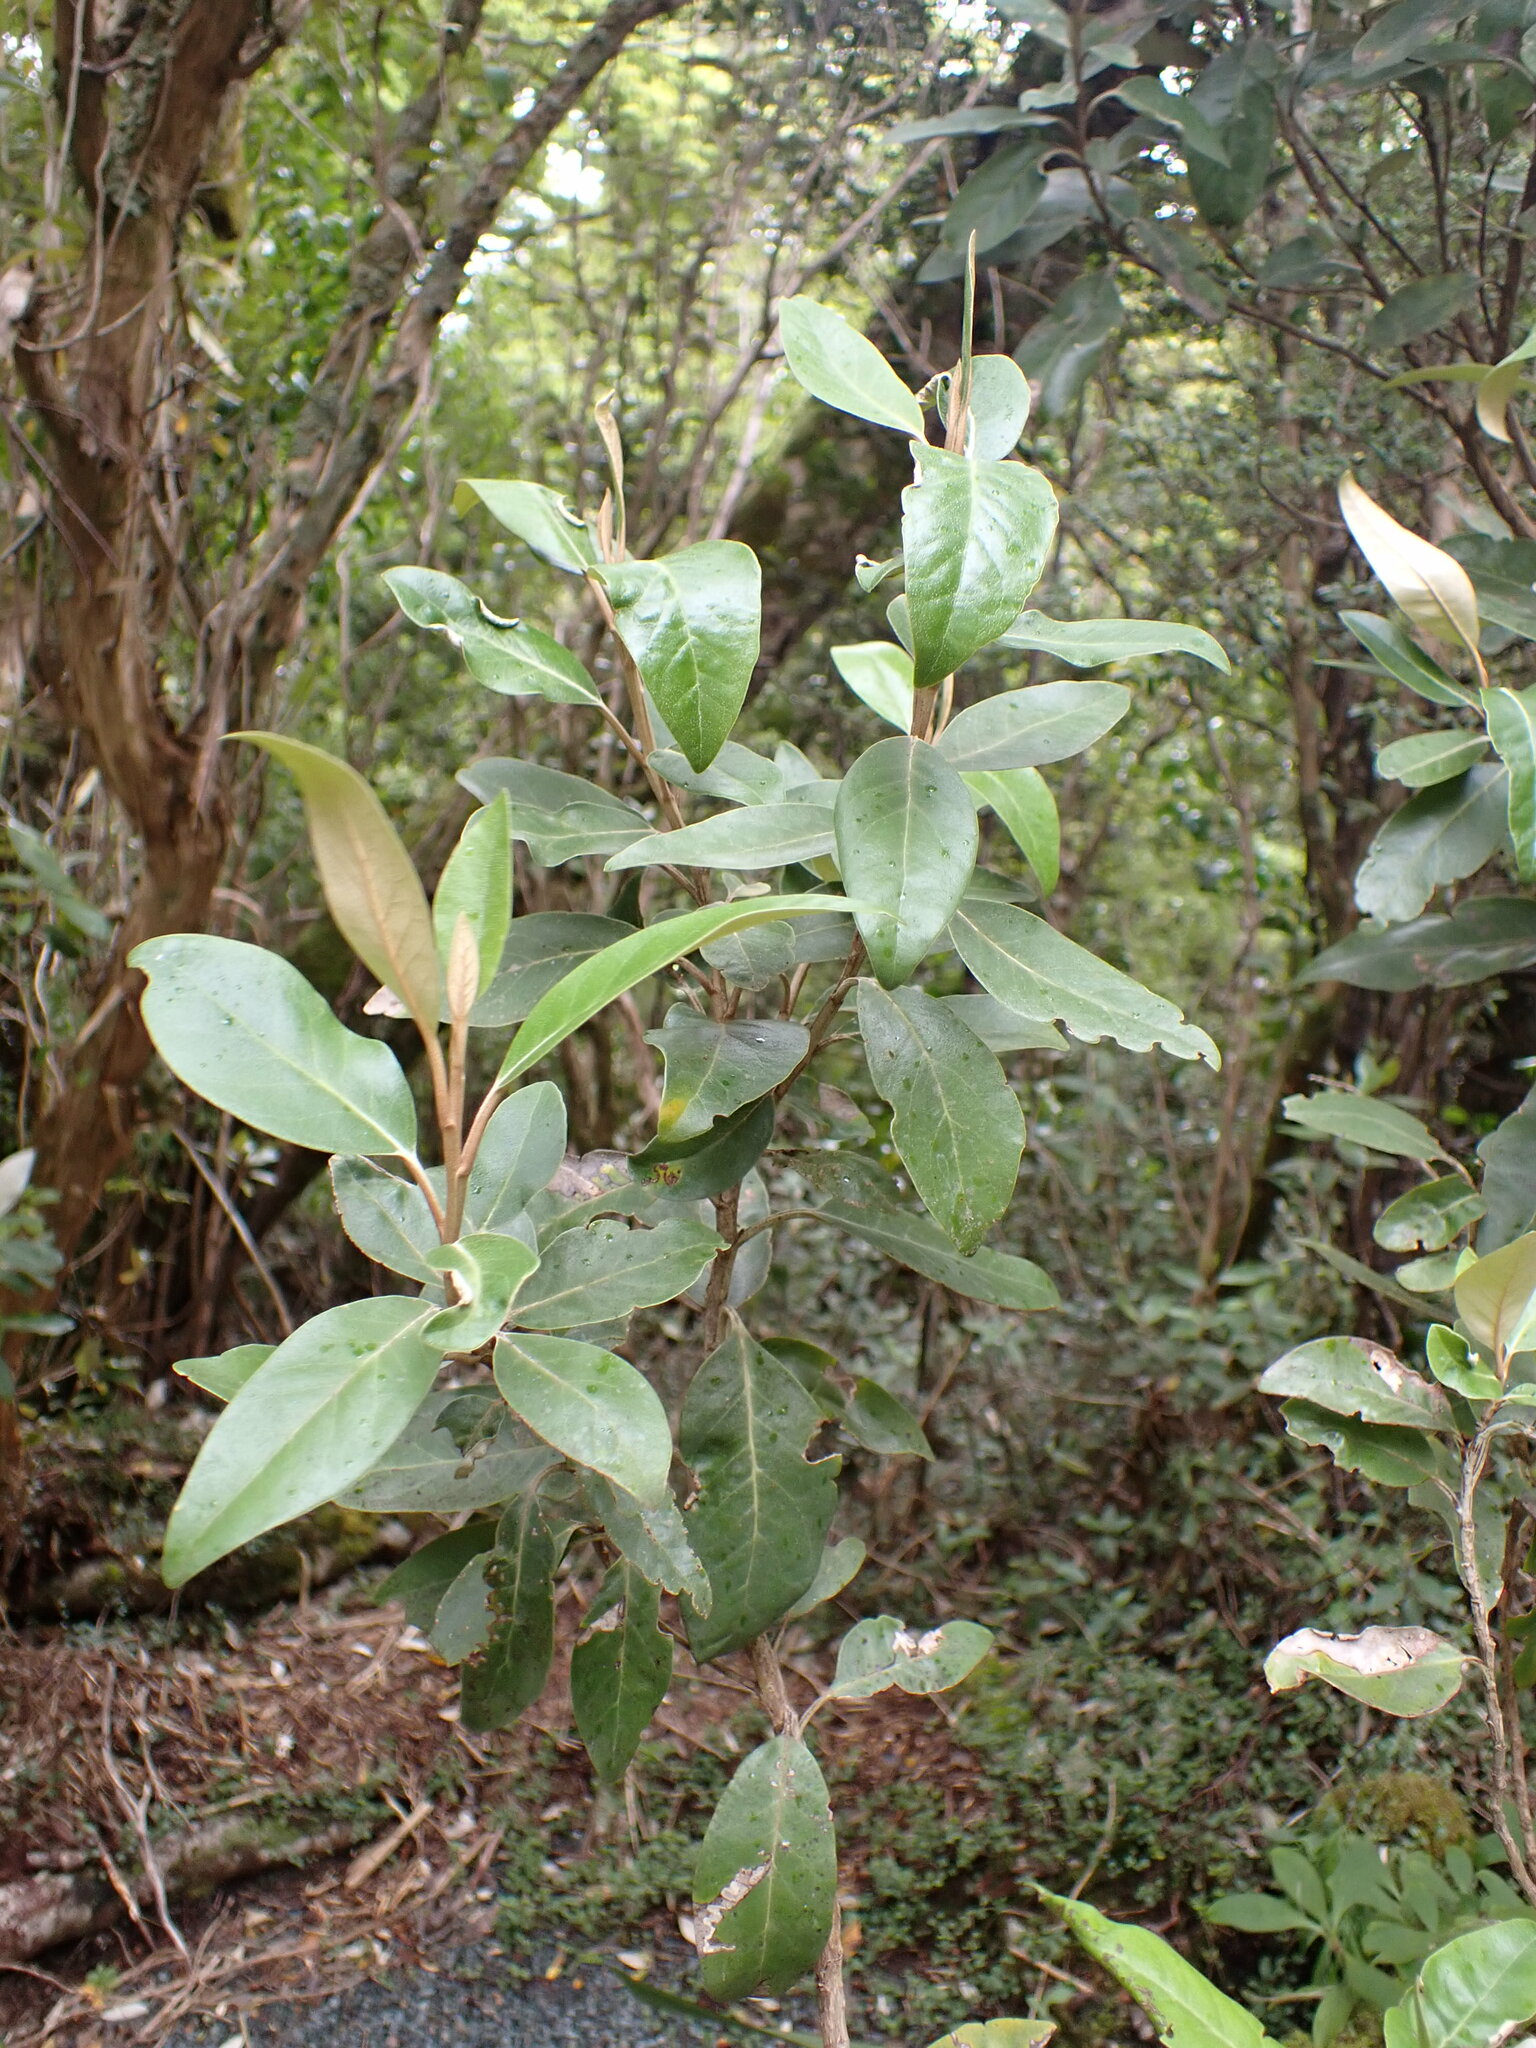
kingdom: Plantae
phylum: Tracheophyta
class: Magnoliopsida
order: Asterales
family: Asteraceae
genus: Olearia
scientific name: Olearia avicenniifolia
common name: Mangrove-leaf daisybush
